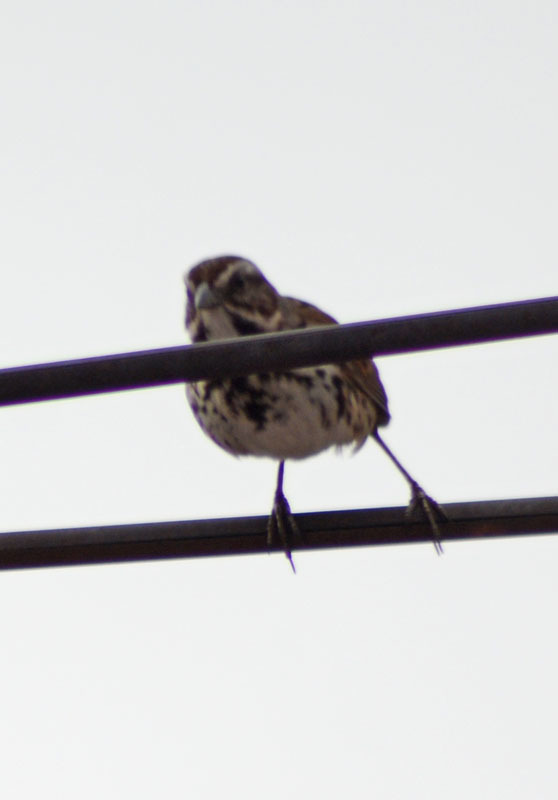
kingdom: Animalia
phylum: Chordata
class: Aves
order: Passeriformes
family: Passerellidae
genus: Melospiza
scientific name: Melospiza melodia
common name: Song sparrow
